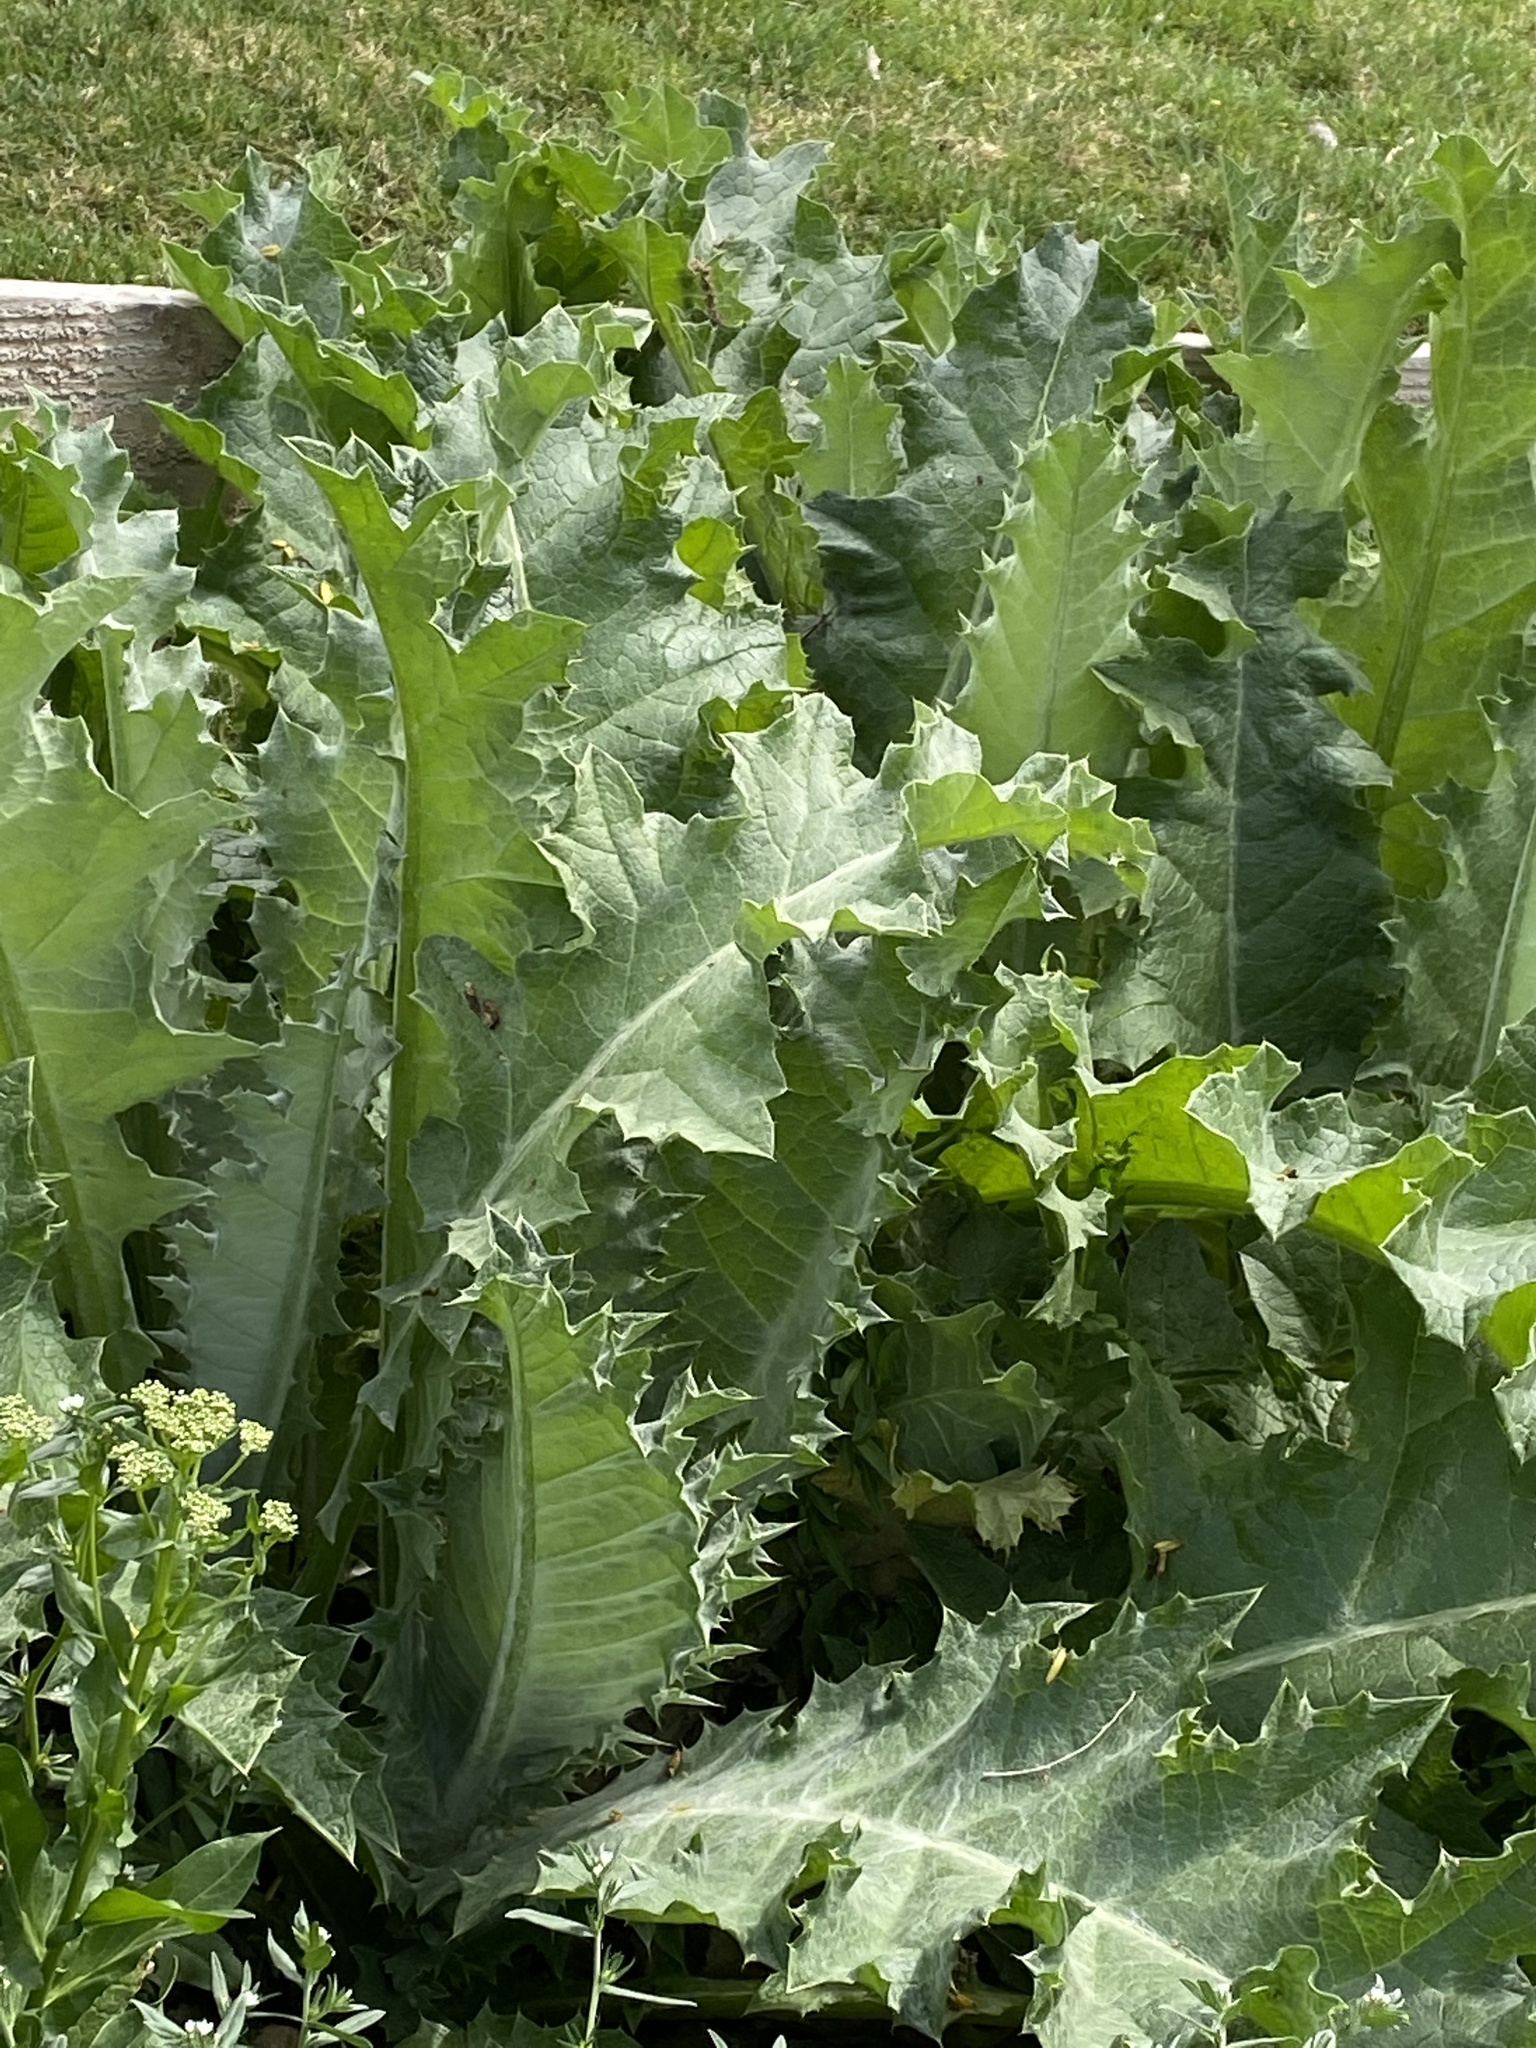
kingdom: Plantae
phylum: Tracheophyta
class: Magnoliopsida
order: Asterales
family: Asteraceae
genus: Onopordum
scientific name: Onopordum acanthium
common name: Scotch thistle
